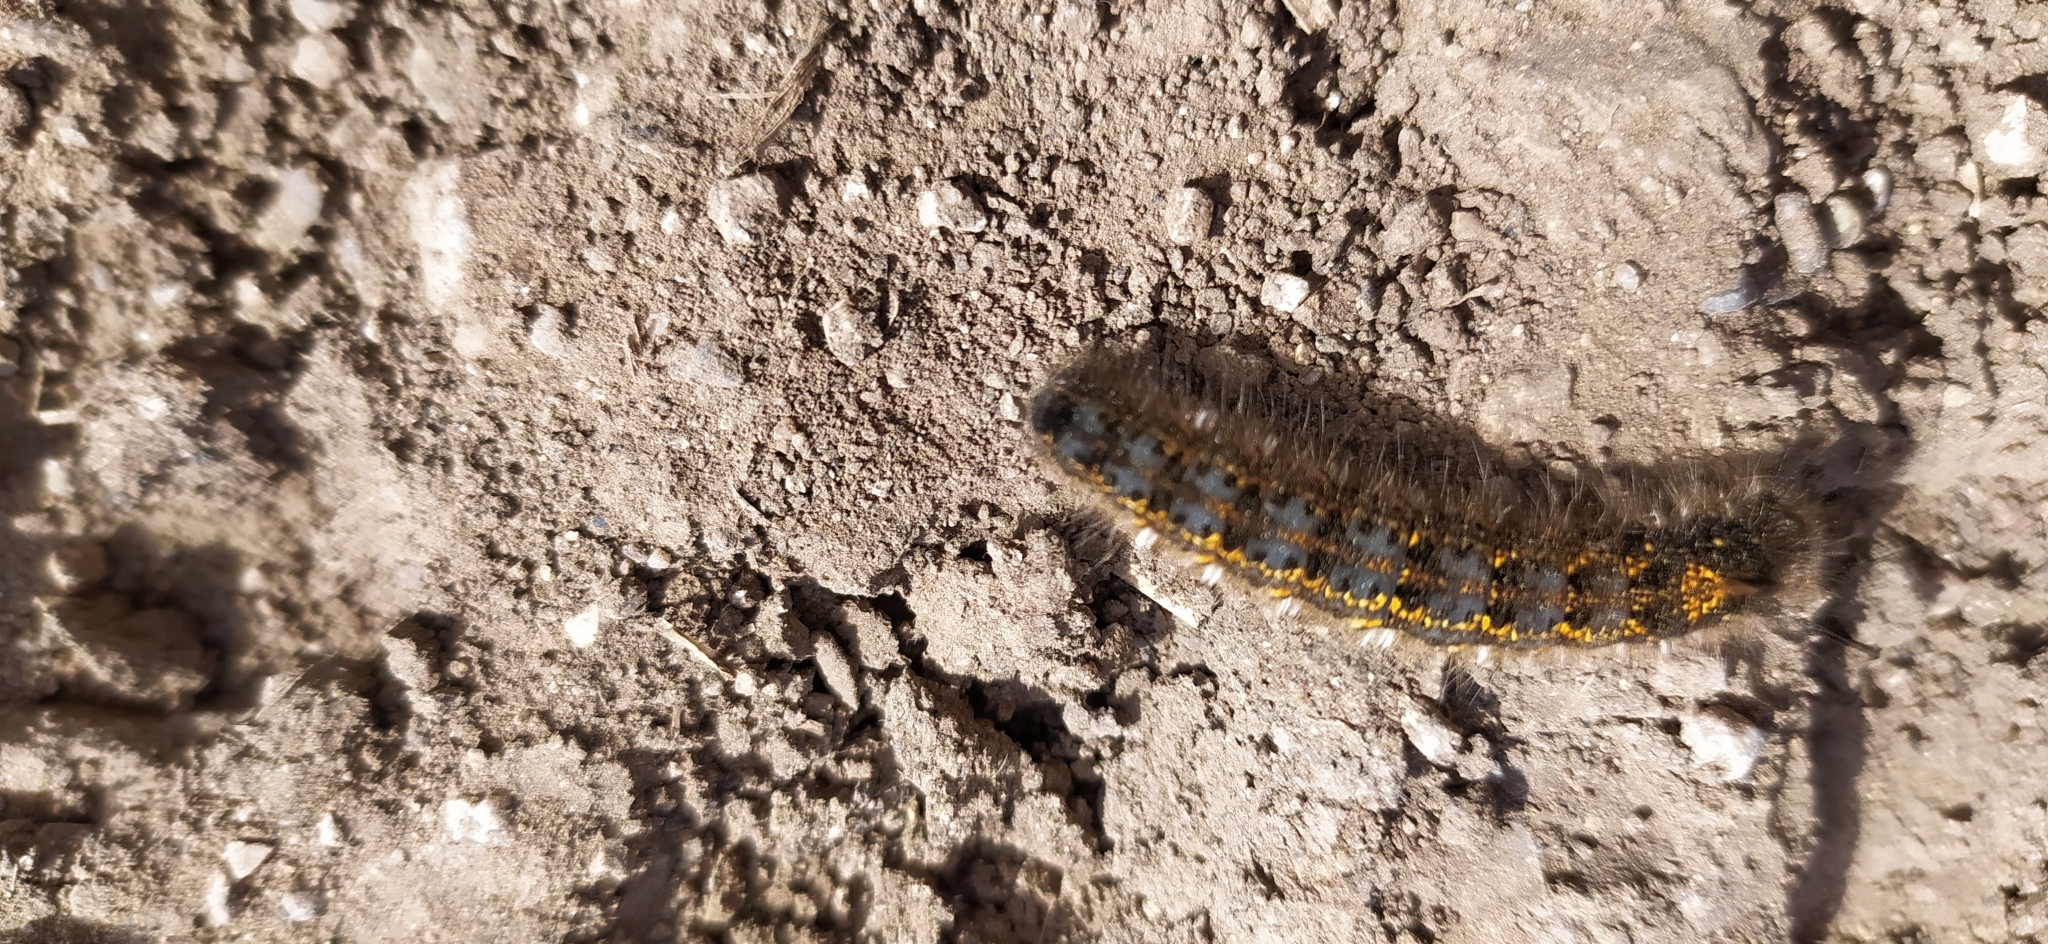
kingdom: Animalia
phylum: Arthropoda
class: Insecta
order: Lepidoptera
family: Lasiocampidae
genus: Euthrix
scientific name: Euthrix potatoria
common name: Drinker
